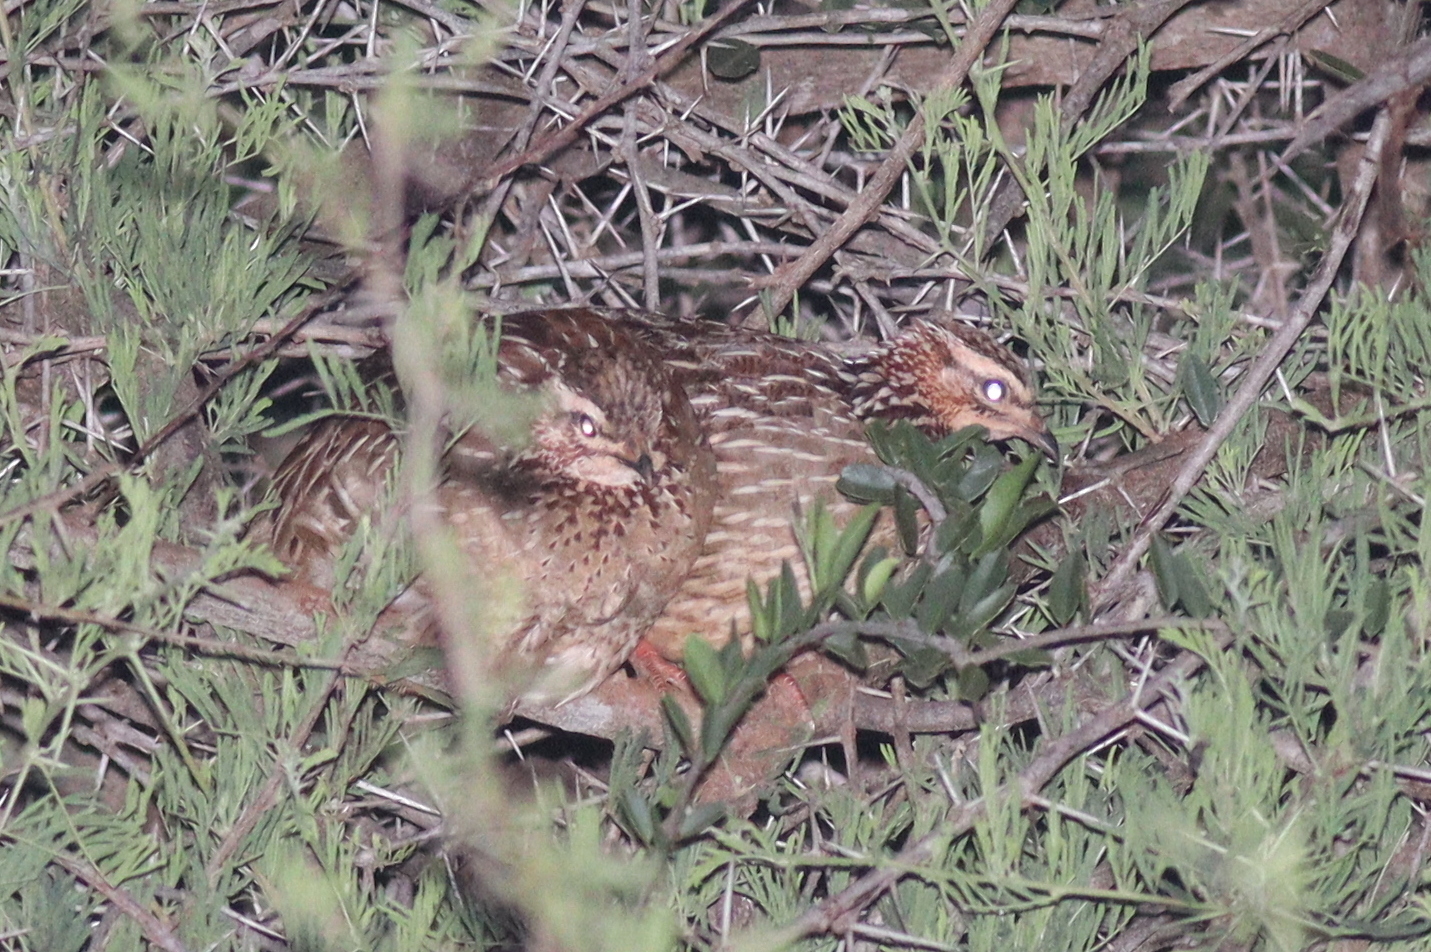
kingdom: Animalia
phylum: Chordata
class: Aves
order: Galliformes
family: Phasianidae
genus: Ortygornis
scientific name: Ortygornis sephaena
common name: Crested francolin
